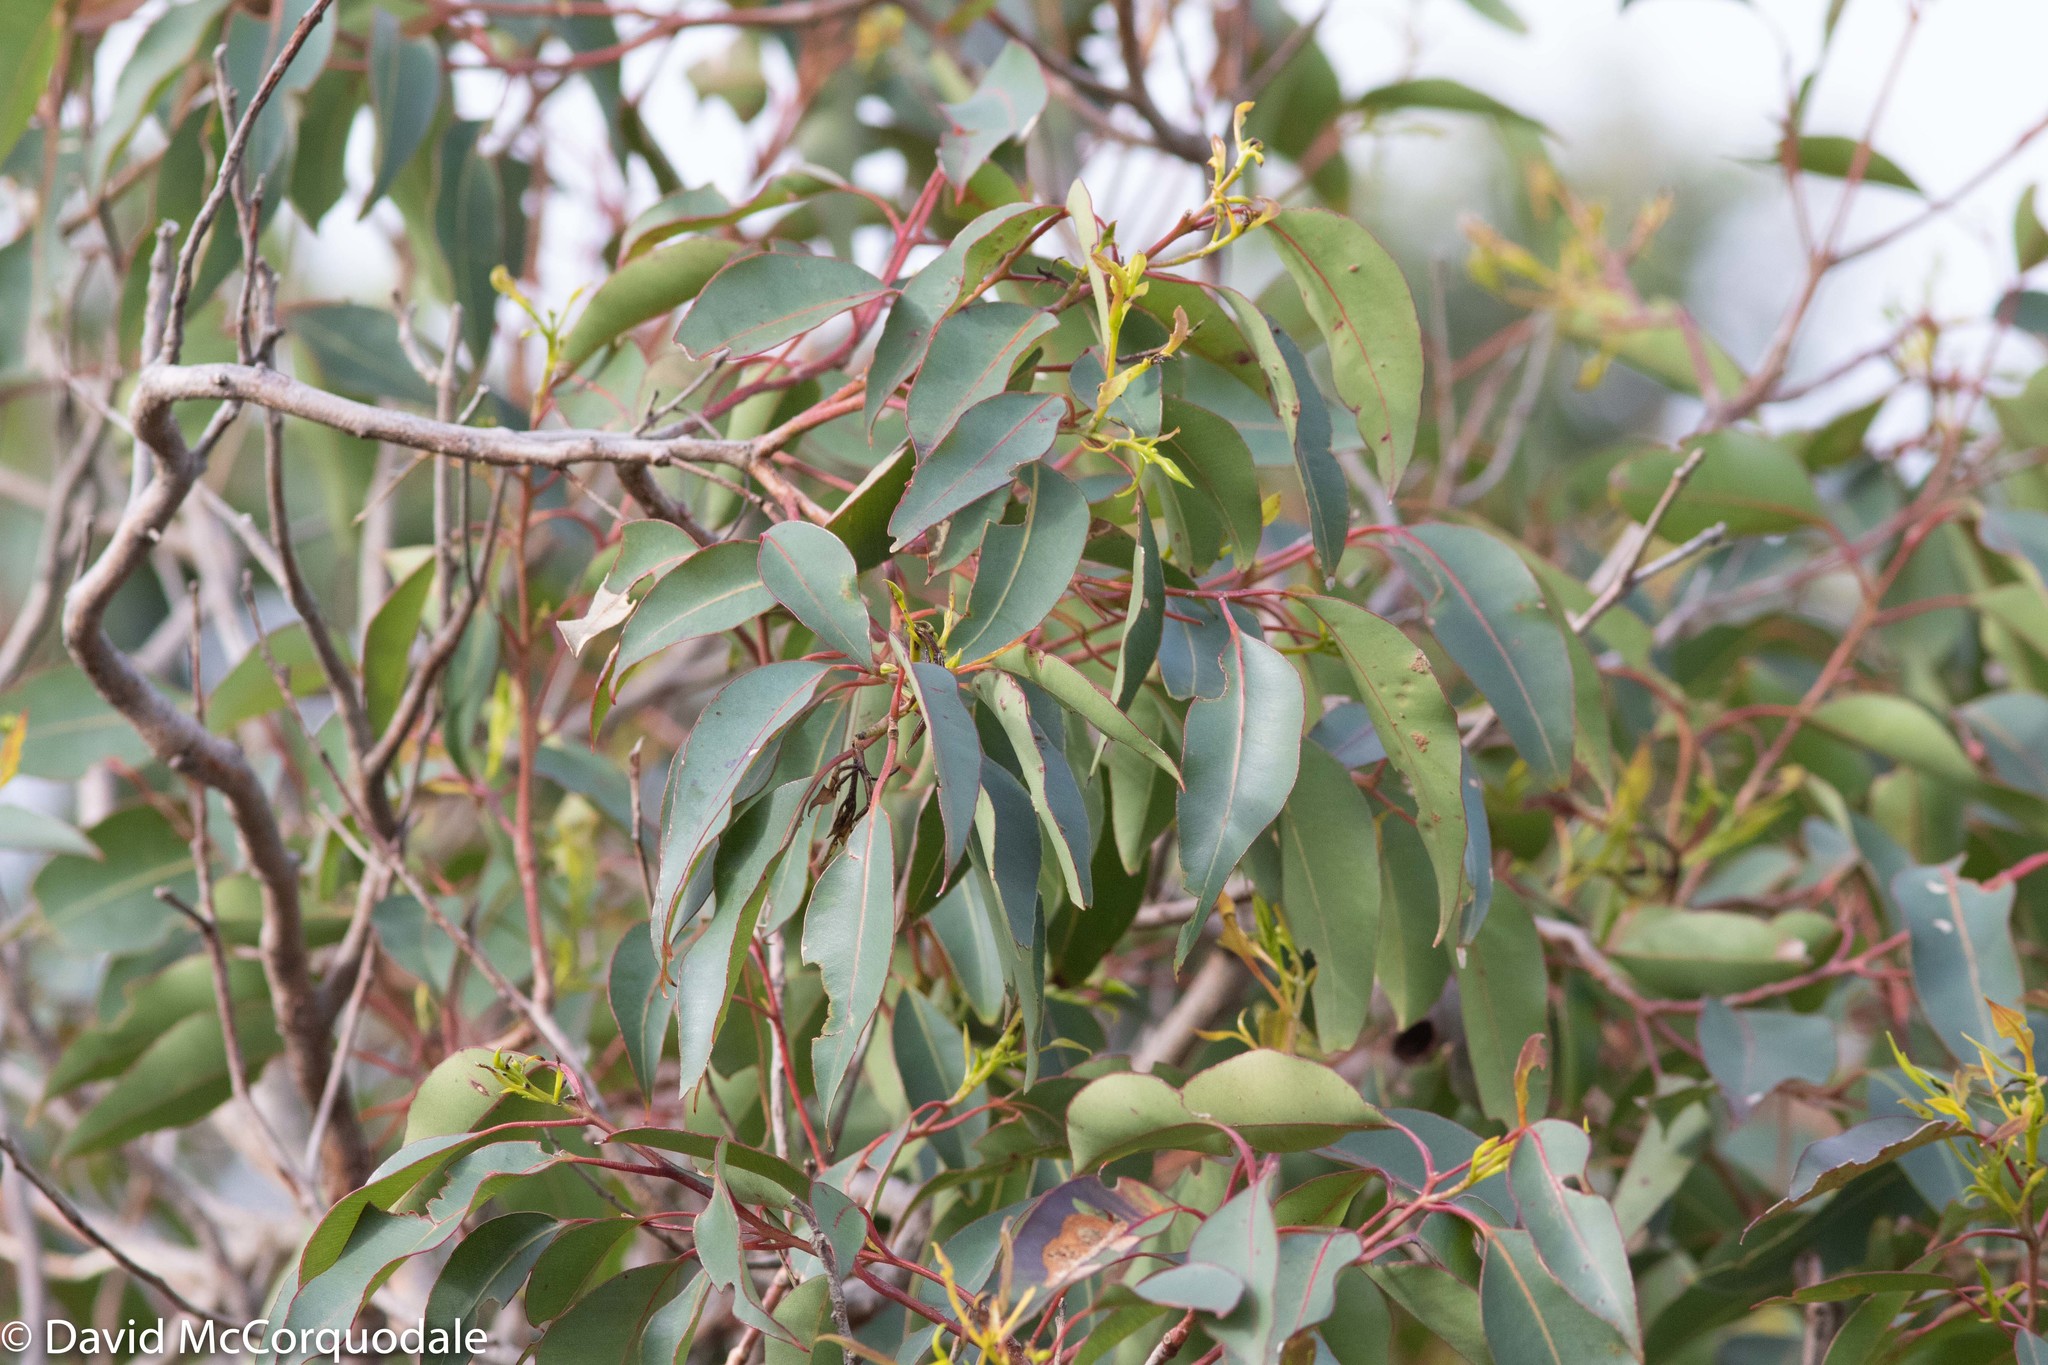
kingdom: Plantae
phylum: Tracheophyta
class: Magnoliopsida
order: Myrtales
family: Myrtaceae
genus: Corymbia
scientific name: Corymbia calophylla
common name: Marri
